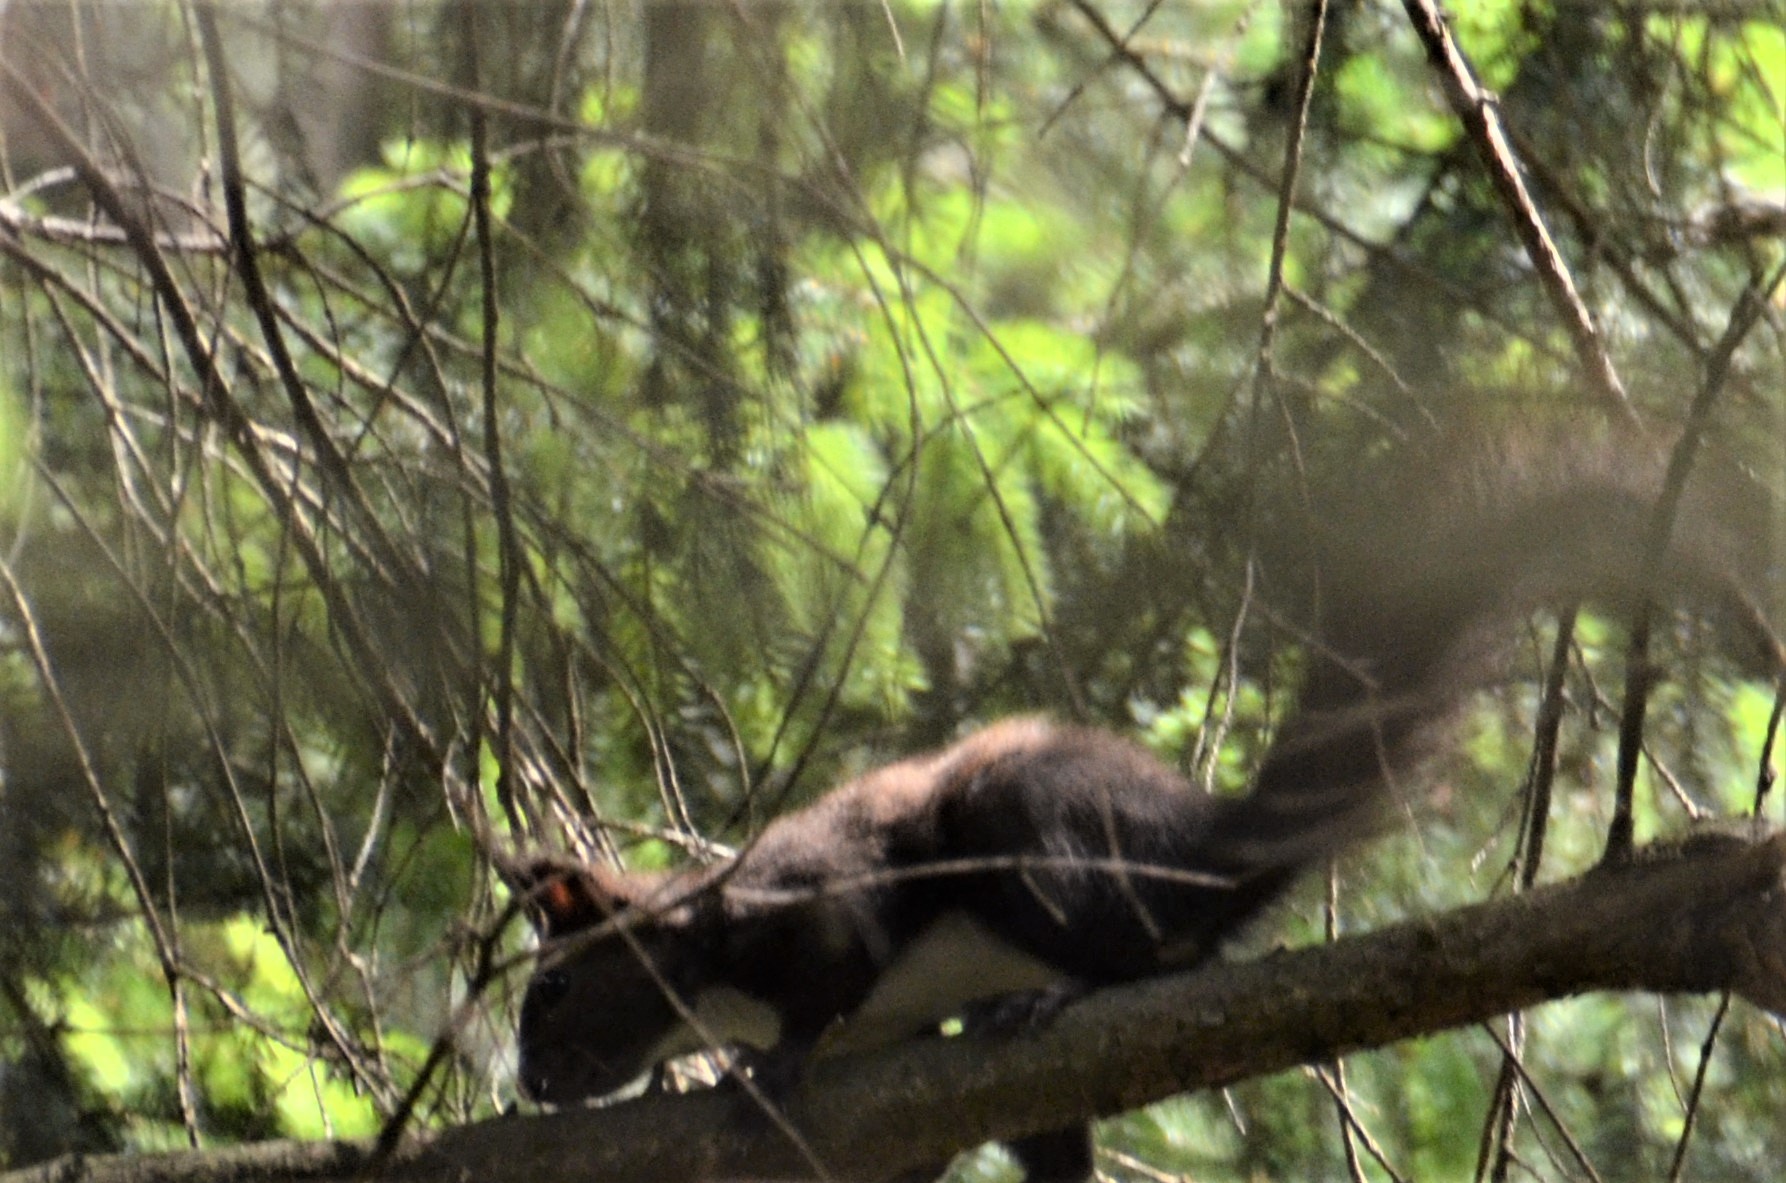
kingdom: Animalia
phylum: Chordata
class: Mammalia
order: Rodentia
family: Sciuridae
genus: Sciurus
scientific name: Sciurus vulgaris
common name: Eurasian red squirrel
